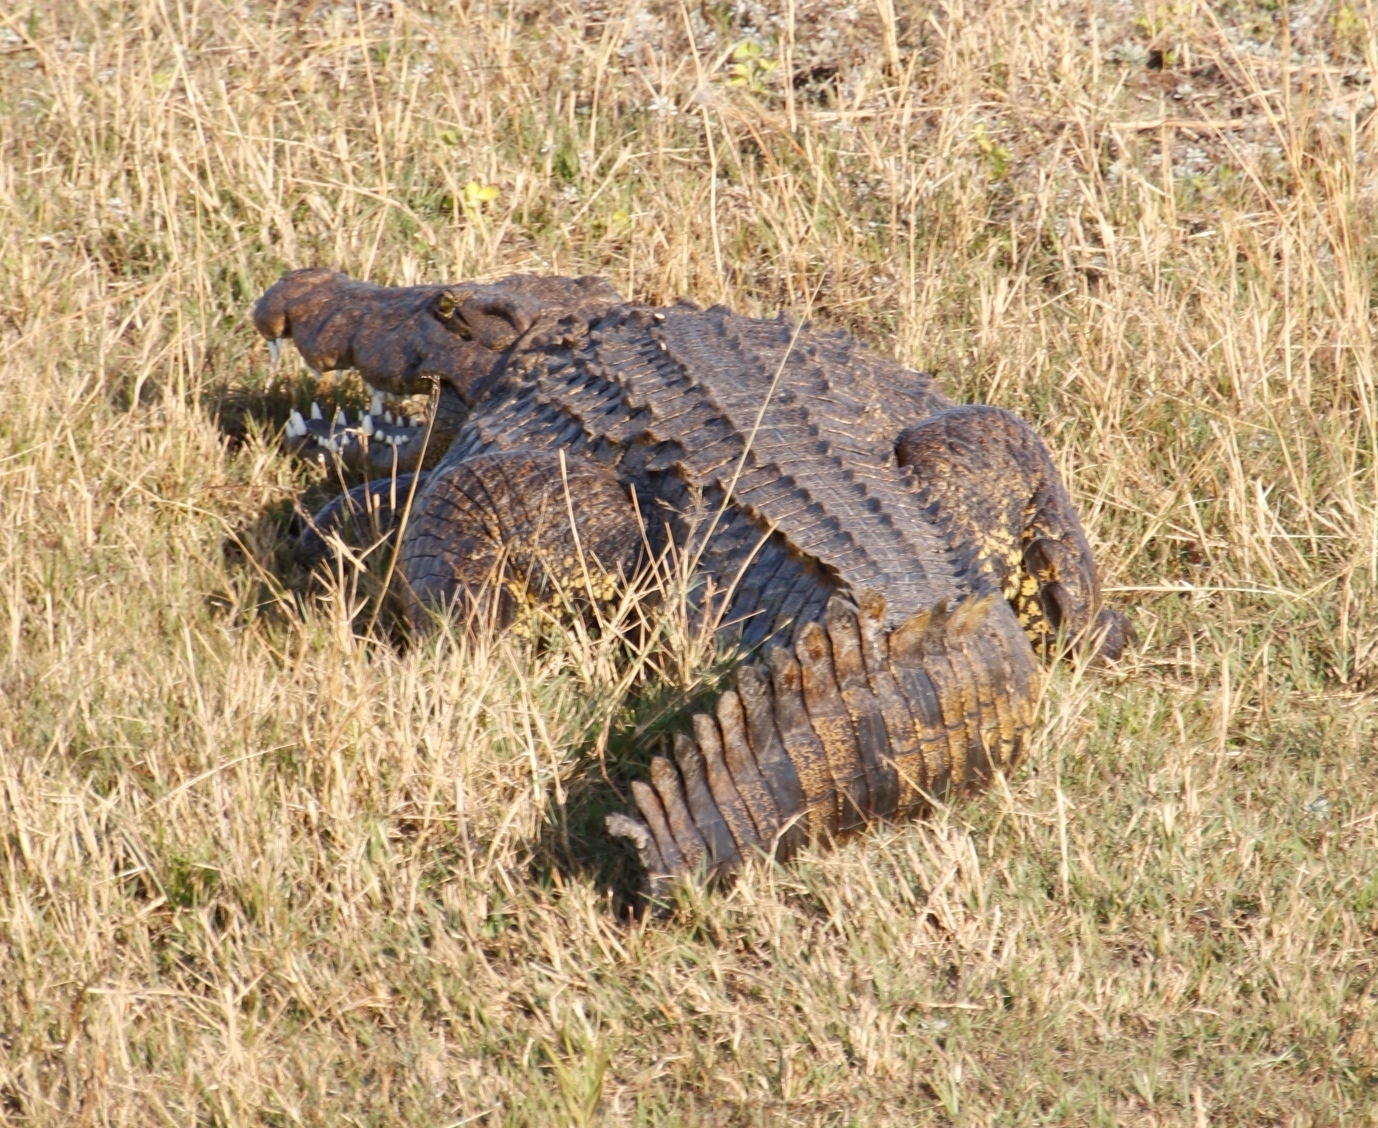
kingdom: Animalia
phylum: Chordata
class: Crocodylia
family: Crocodylidae
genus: Crocodylus
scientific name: Crocodylus niloticus
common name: Nile crocodile
